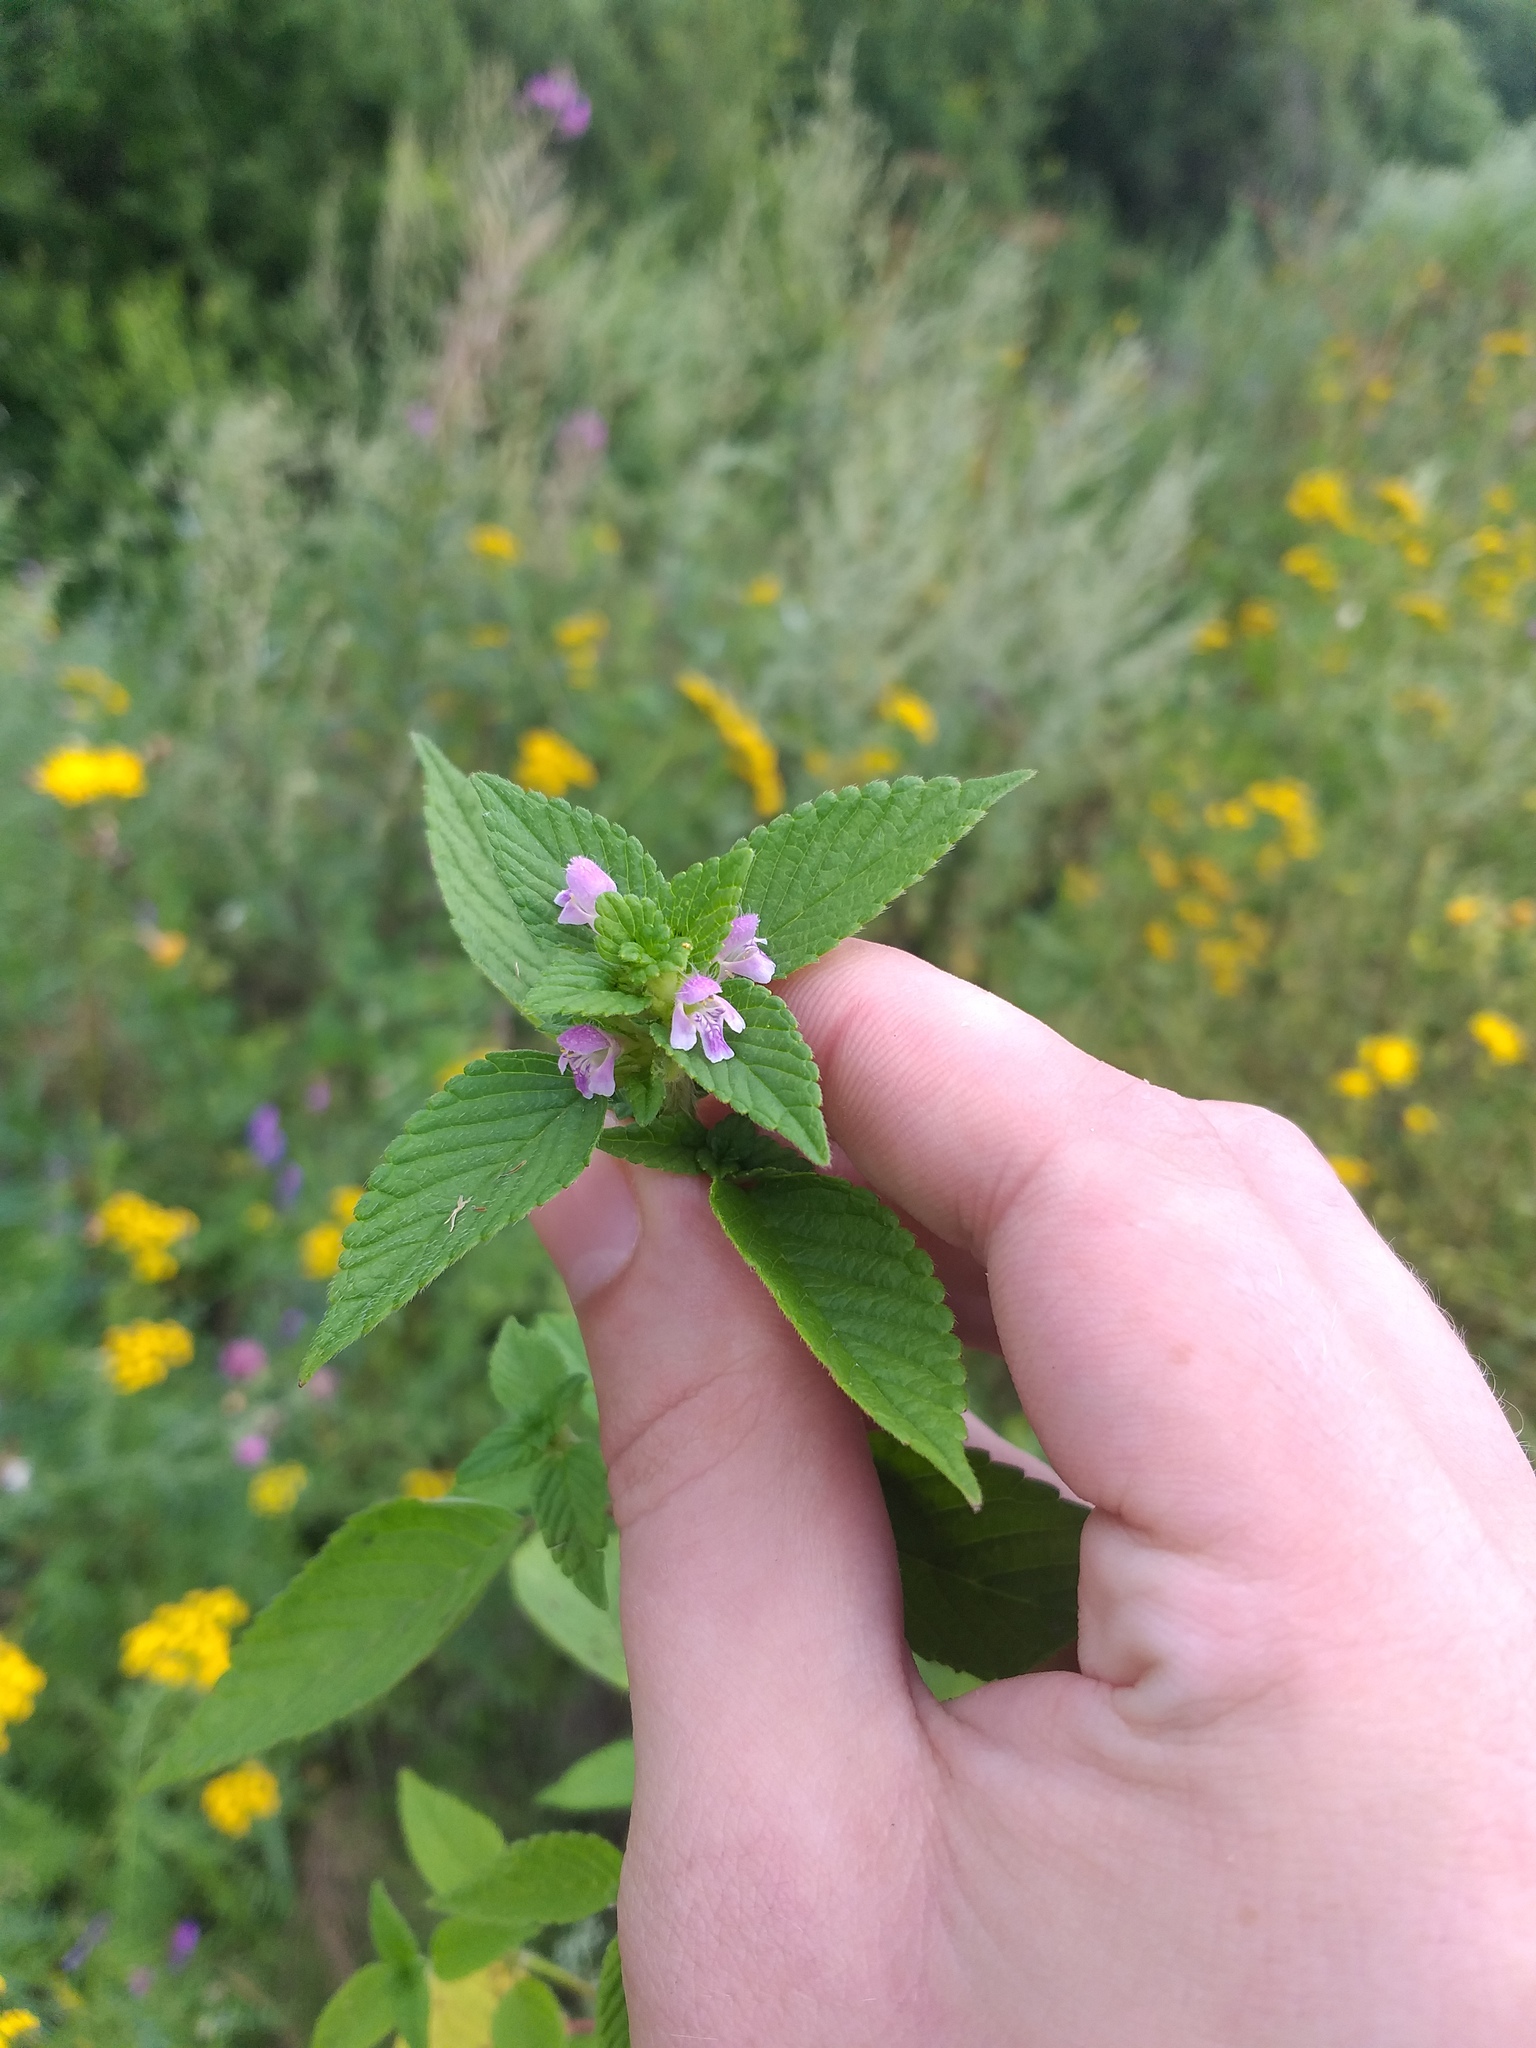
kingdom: Plantae
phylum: Tracheophyta
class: Magnoliopsida
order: Lamiales
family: Lamiaceae
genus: Galeopsis
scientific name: Galeopsis bifida
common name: Bifid hemp-nettle
